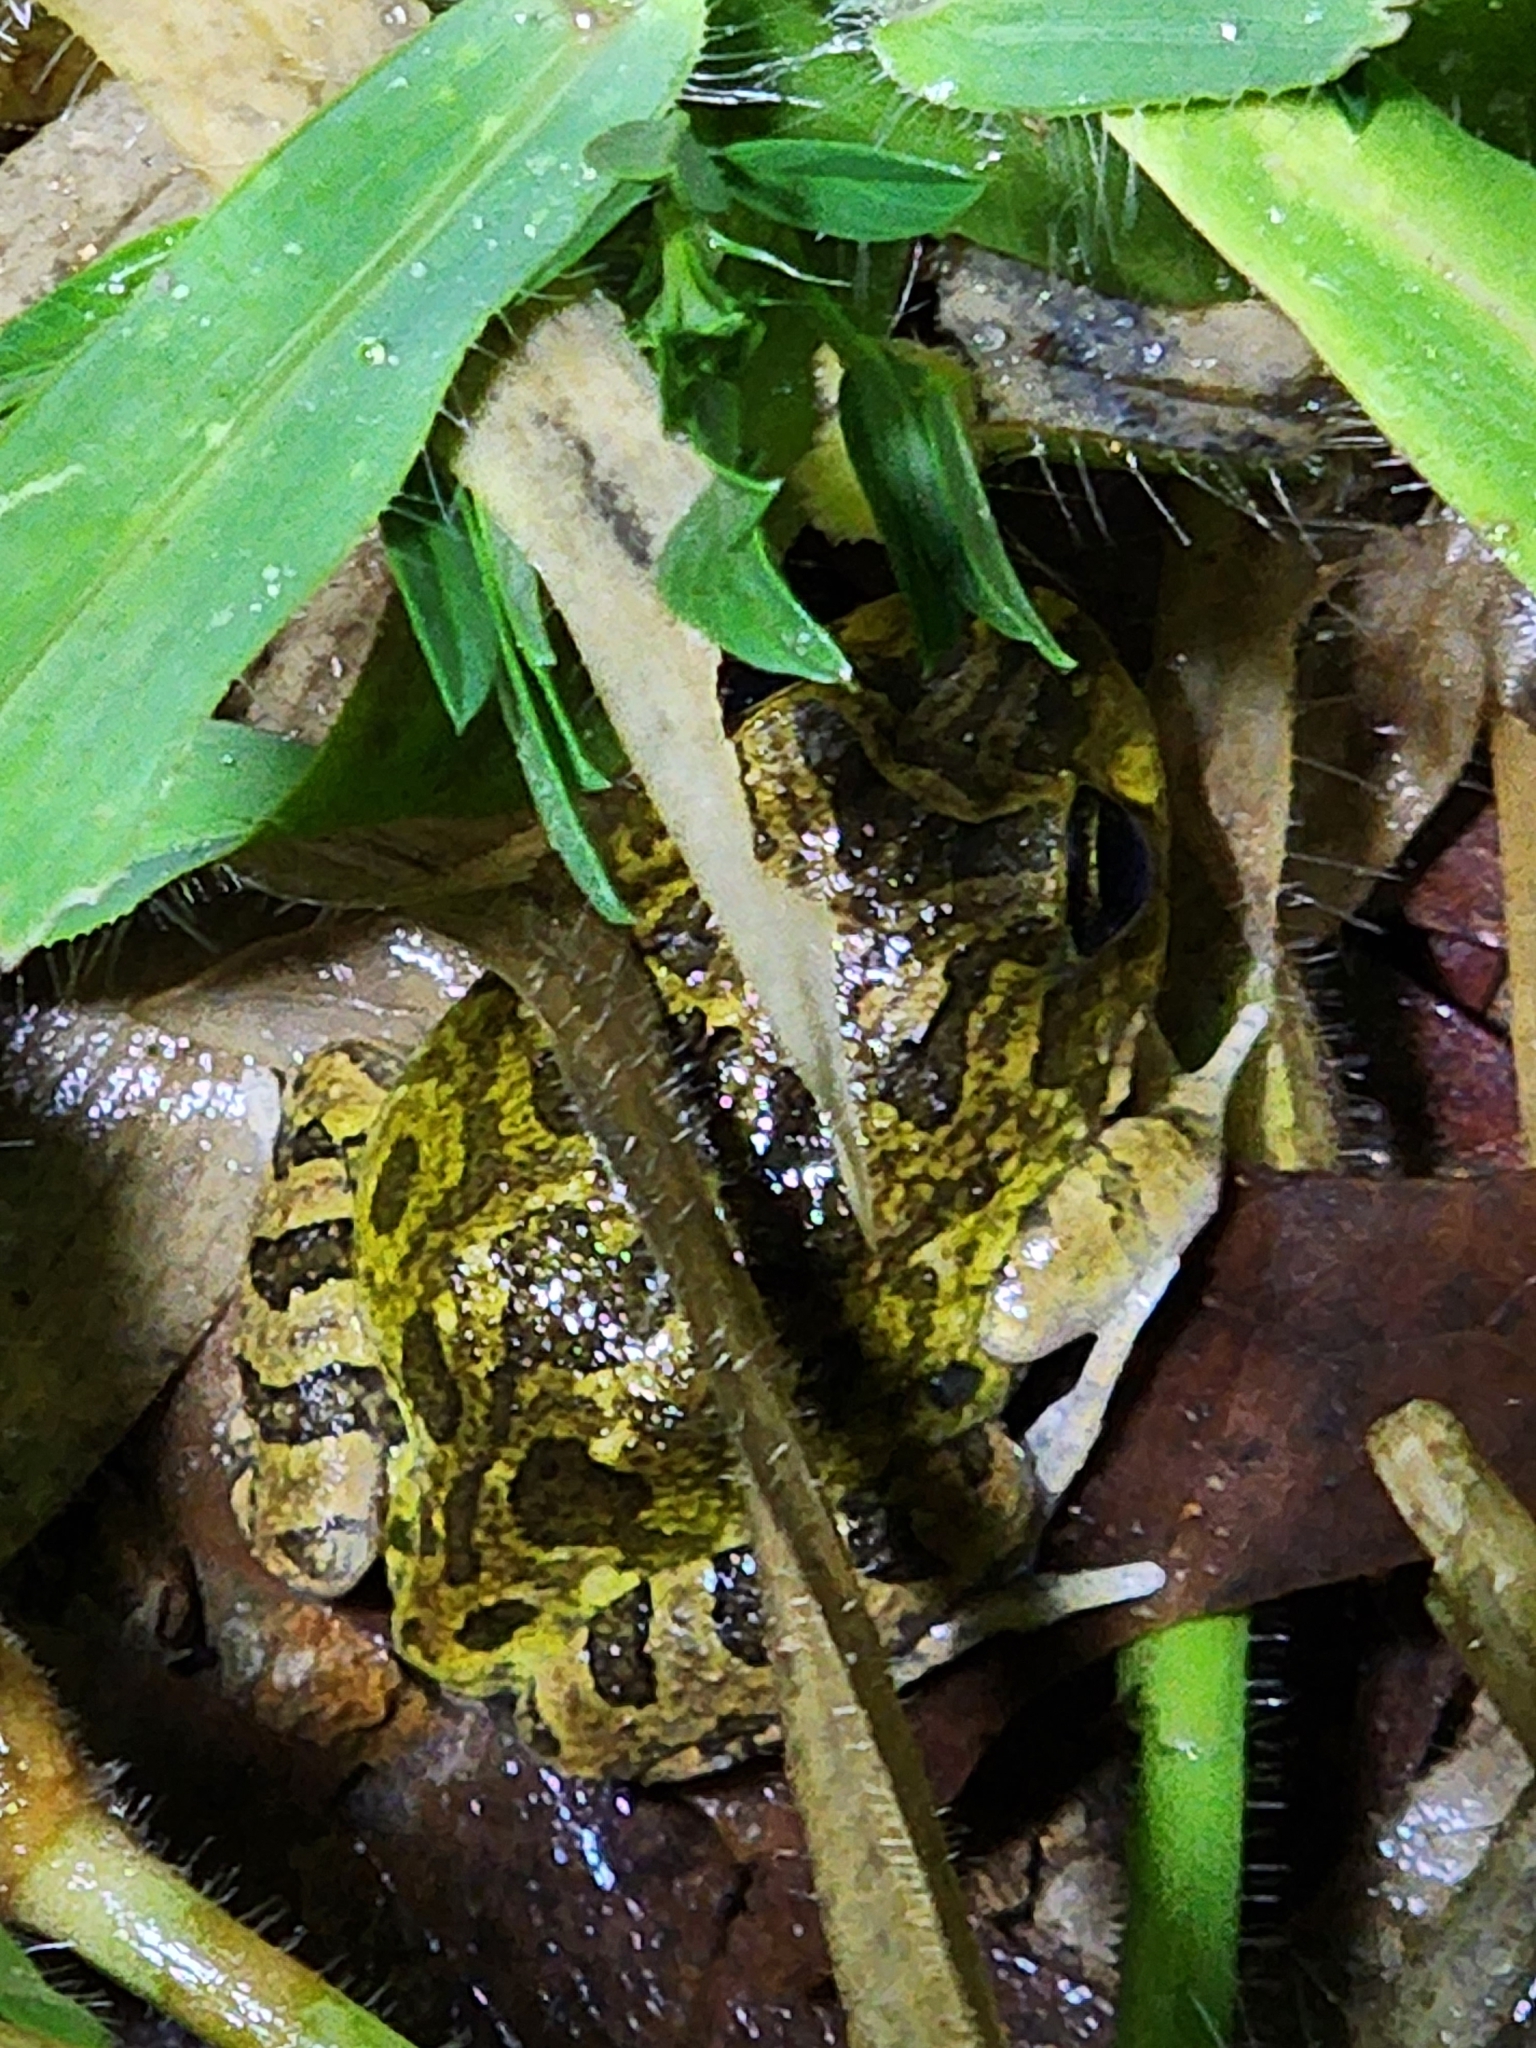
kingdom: Animalia
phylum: Chordata
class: Amphibia
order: Anura
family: Limnodynastidae
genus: Platyplectrum
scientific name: Platyplectrum ornatum
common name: Ornate burrowing frog
